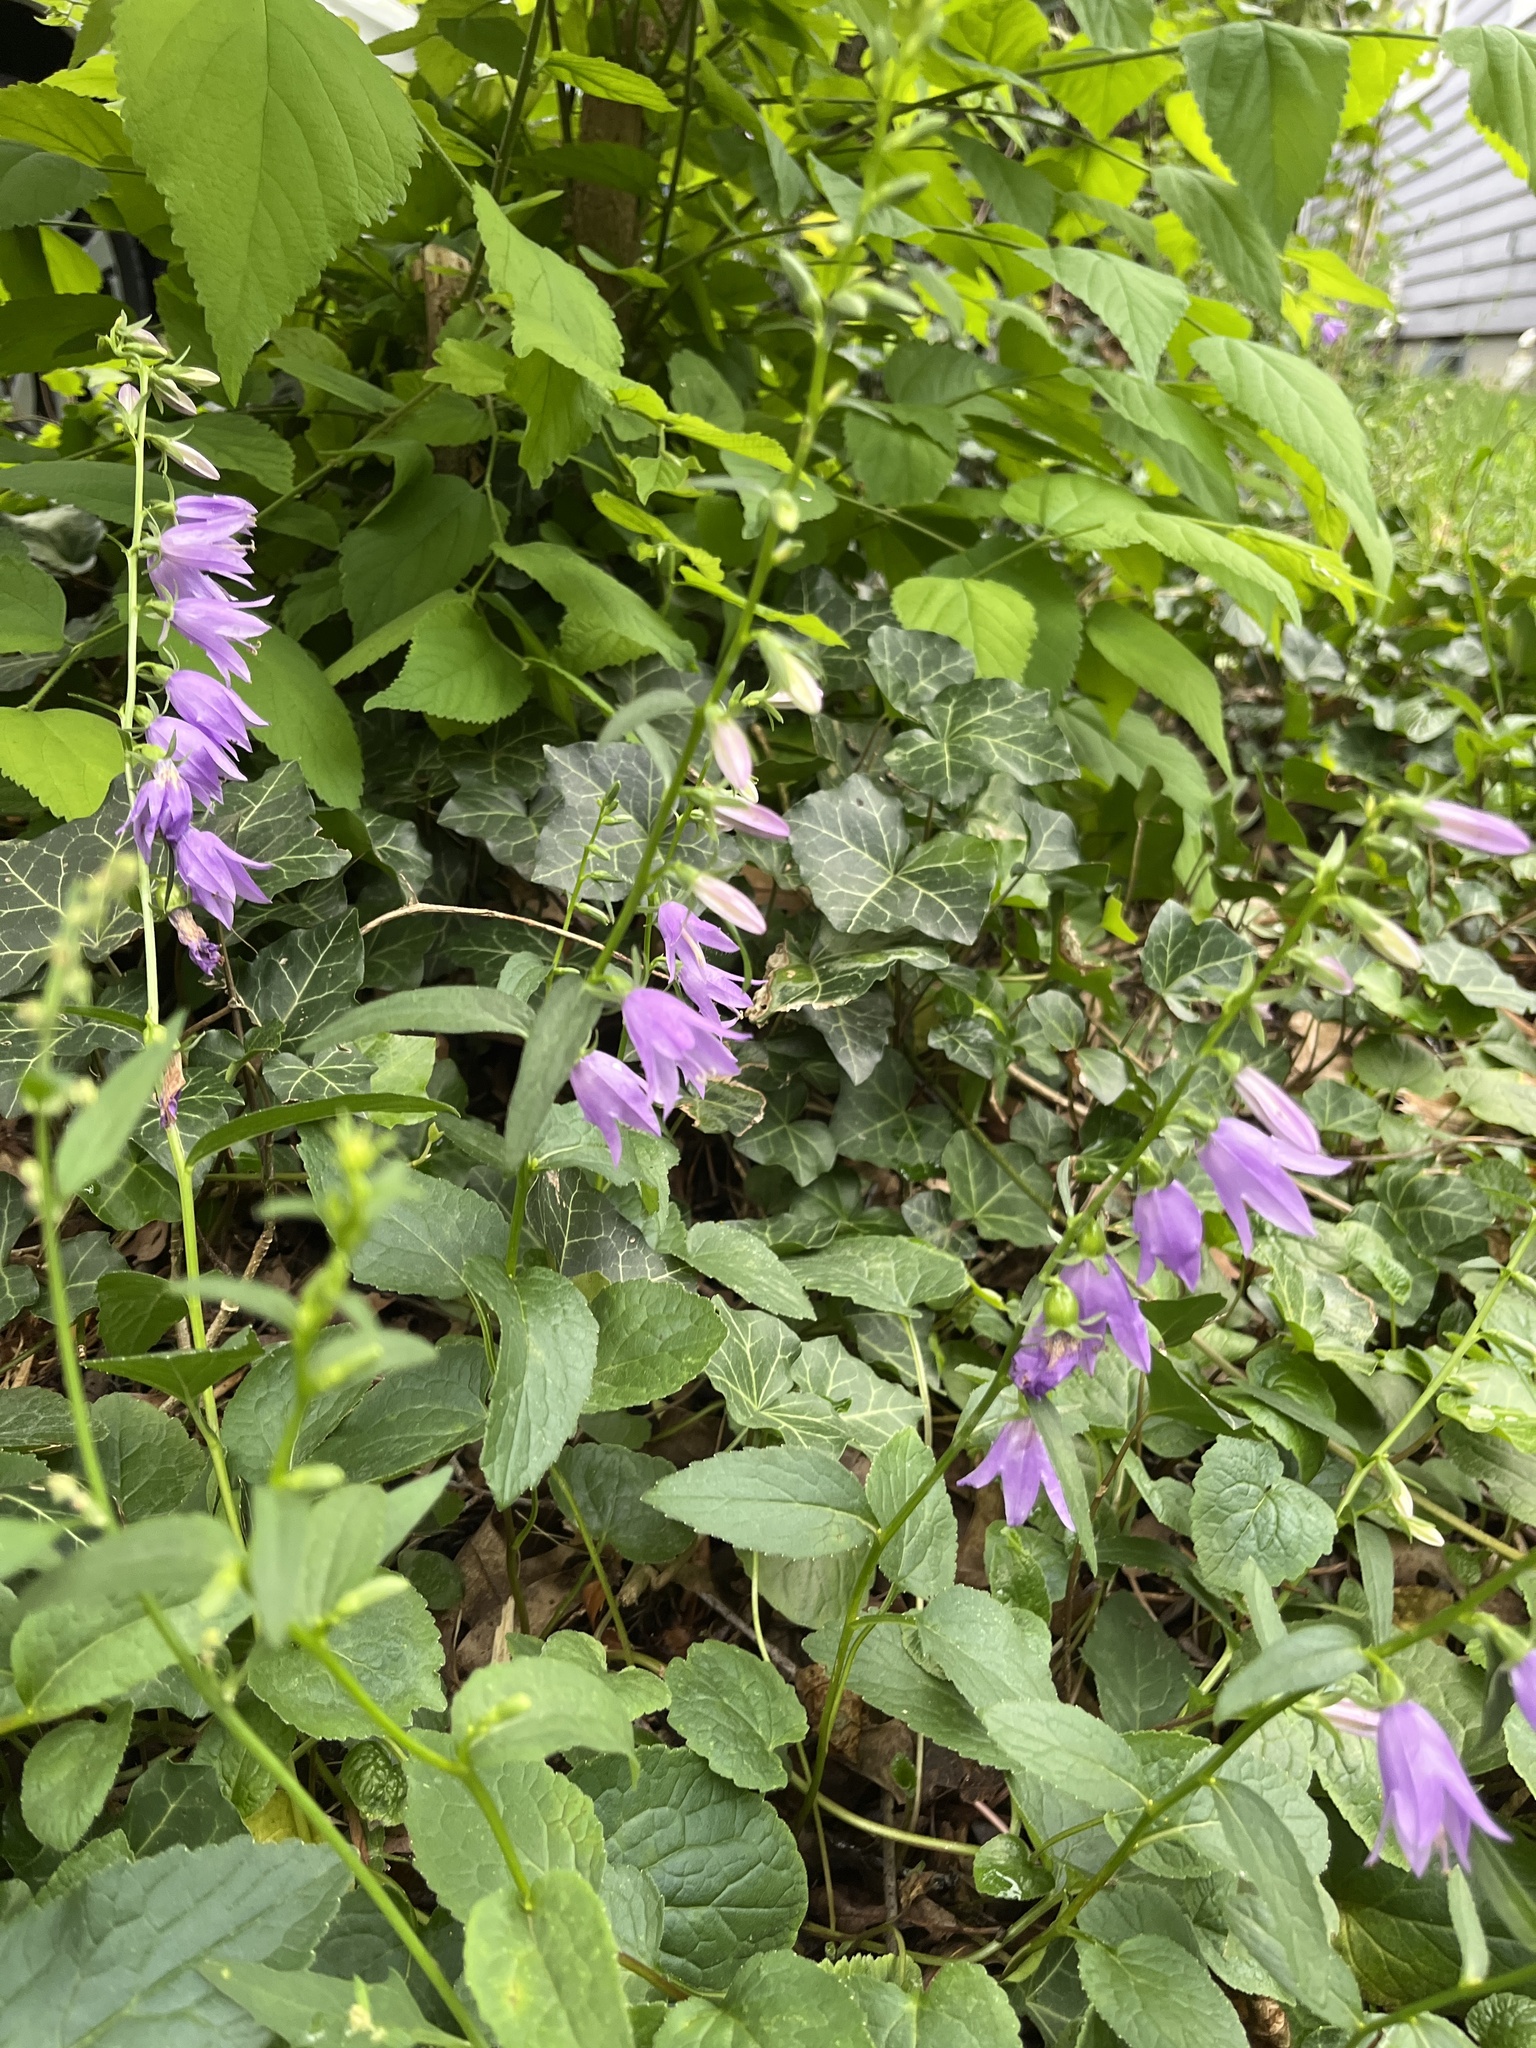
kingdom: Plantae
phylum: Tracheophyta
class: Magnoliopsida
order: Asterales
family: Campanulaceae
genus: Campanula
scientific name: Campanula rapunculoides
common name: Creeping bellflower
